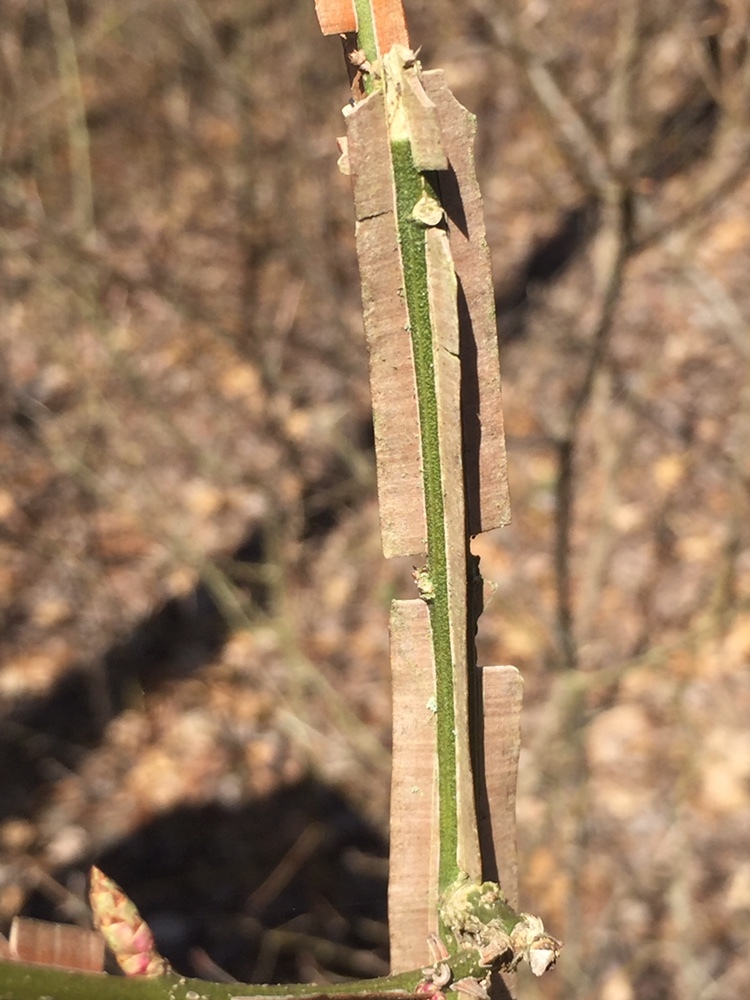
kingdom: Plantae
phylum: Tracheophyta
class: Magnoliopsida
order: Celastrales
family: Celastraceae
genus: Euonymus
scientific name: Euonymus alatus
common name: Winged euonymus
